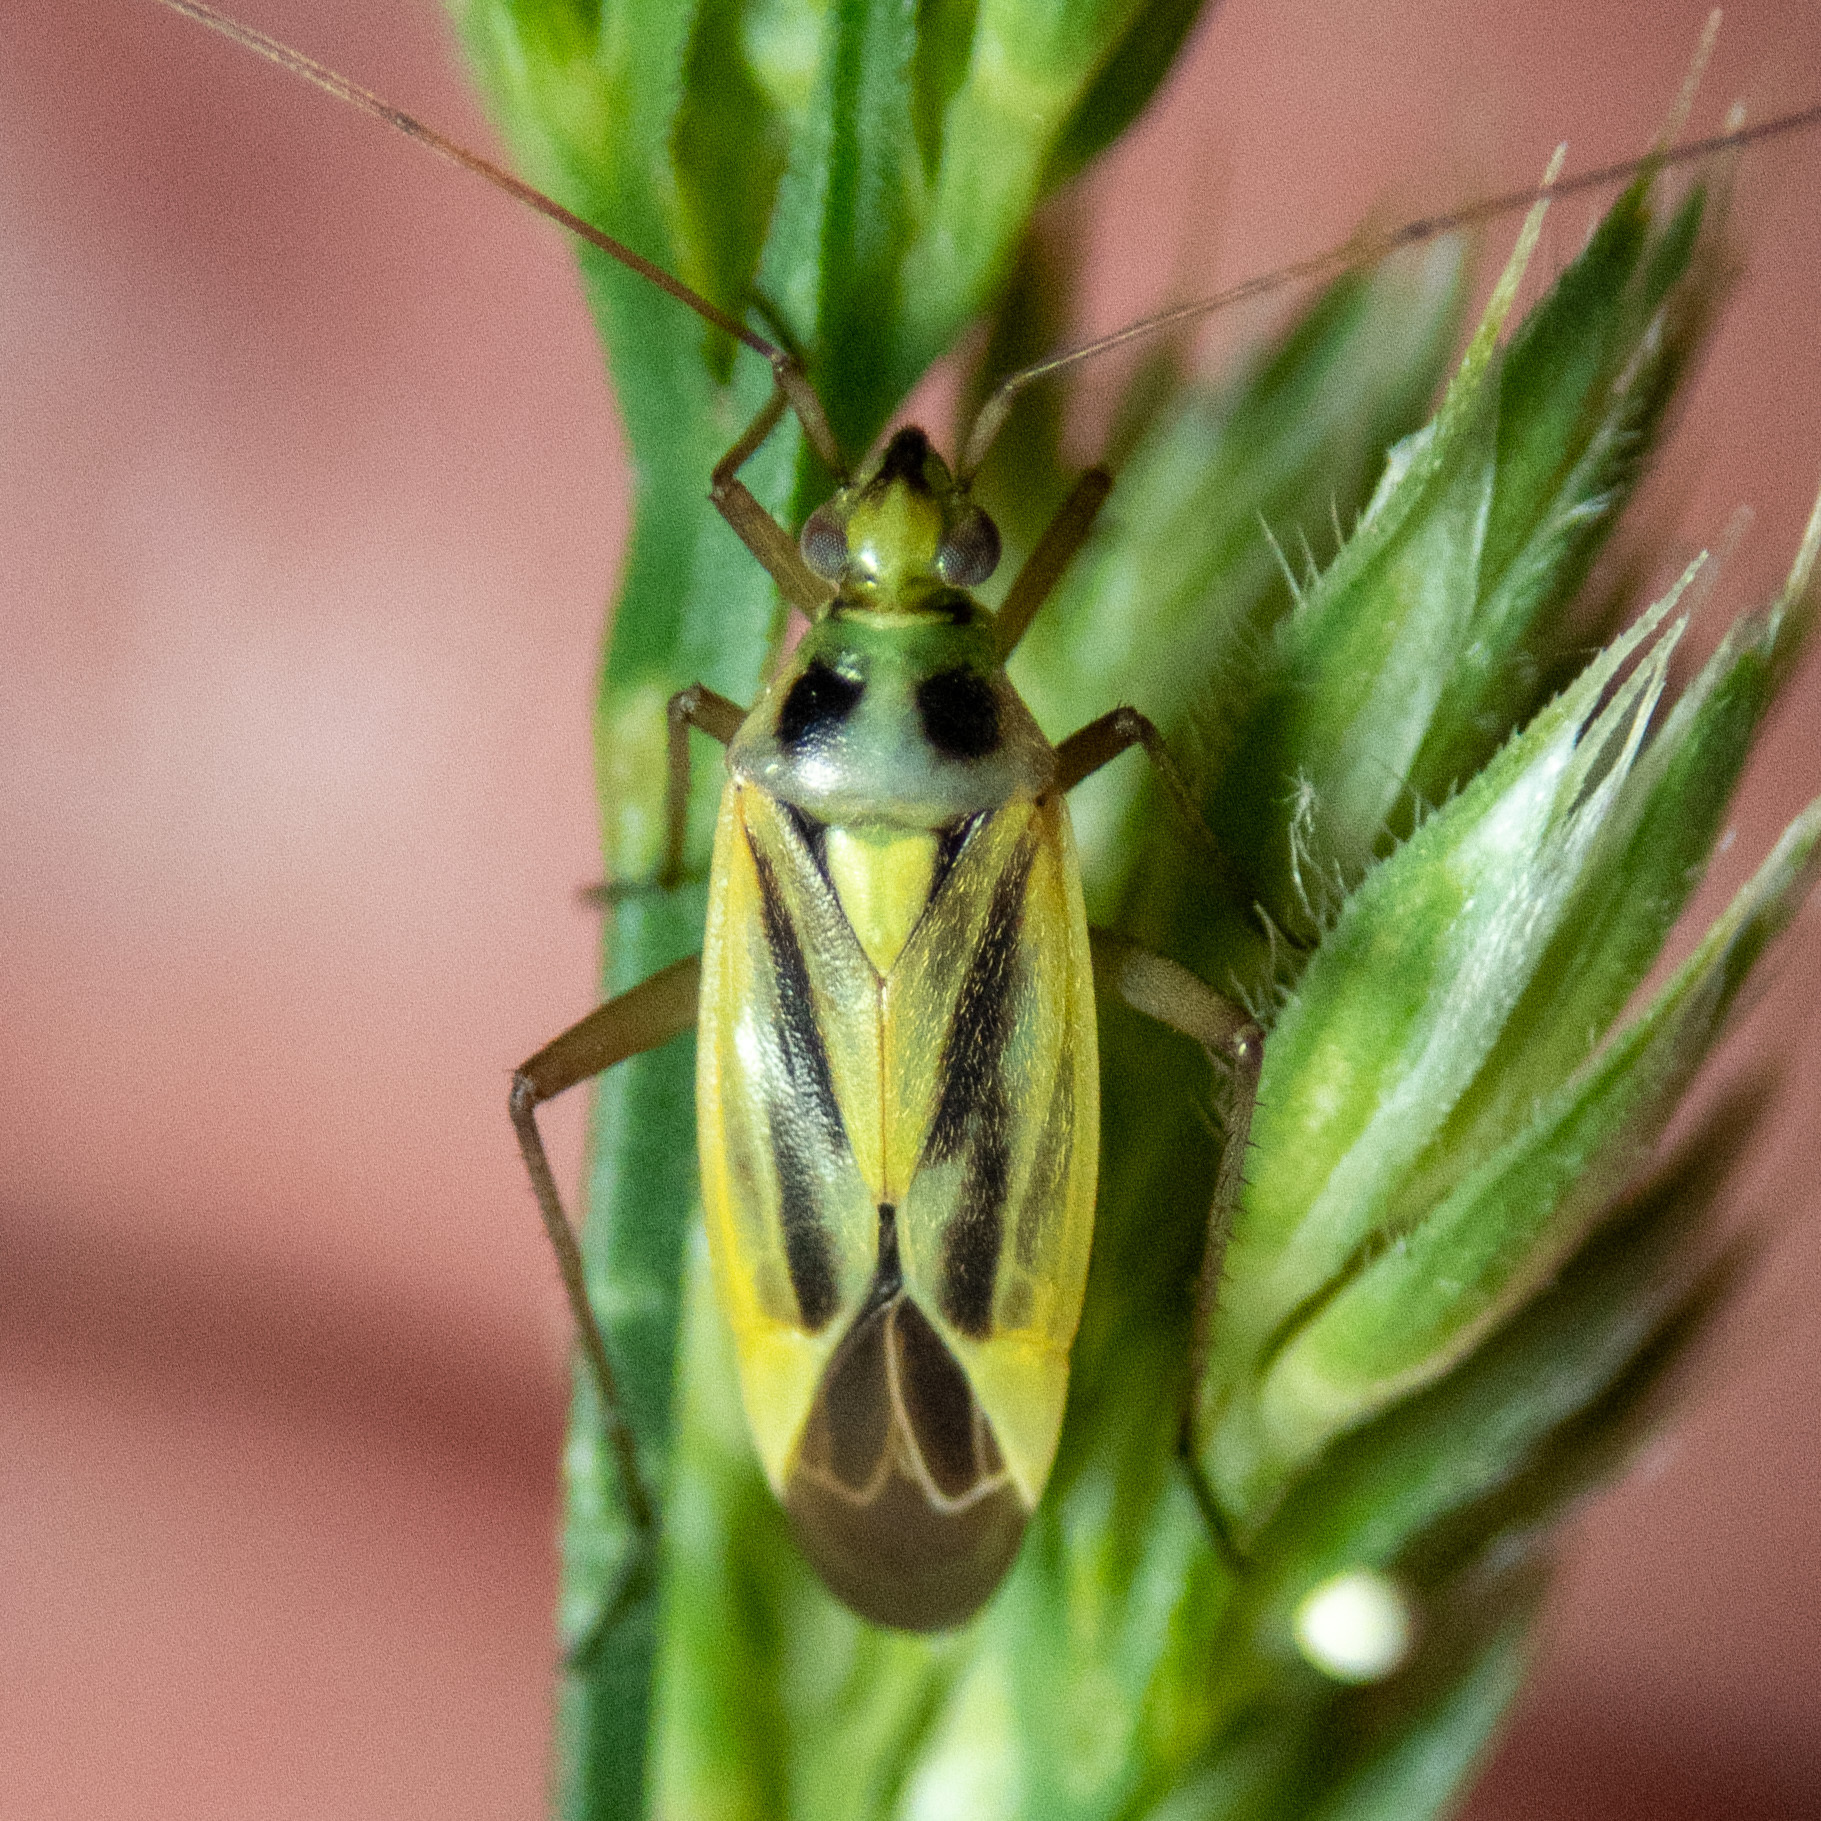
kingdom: Animalia
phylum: Arthropoda
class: Insecta
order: Hemiptera
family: Miridae
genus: Stenotus
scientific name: Stenotus binotatus
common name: Plant bug
